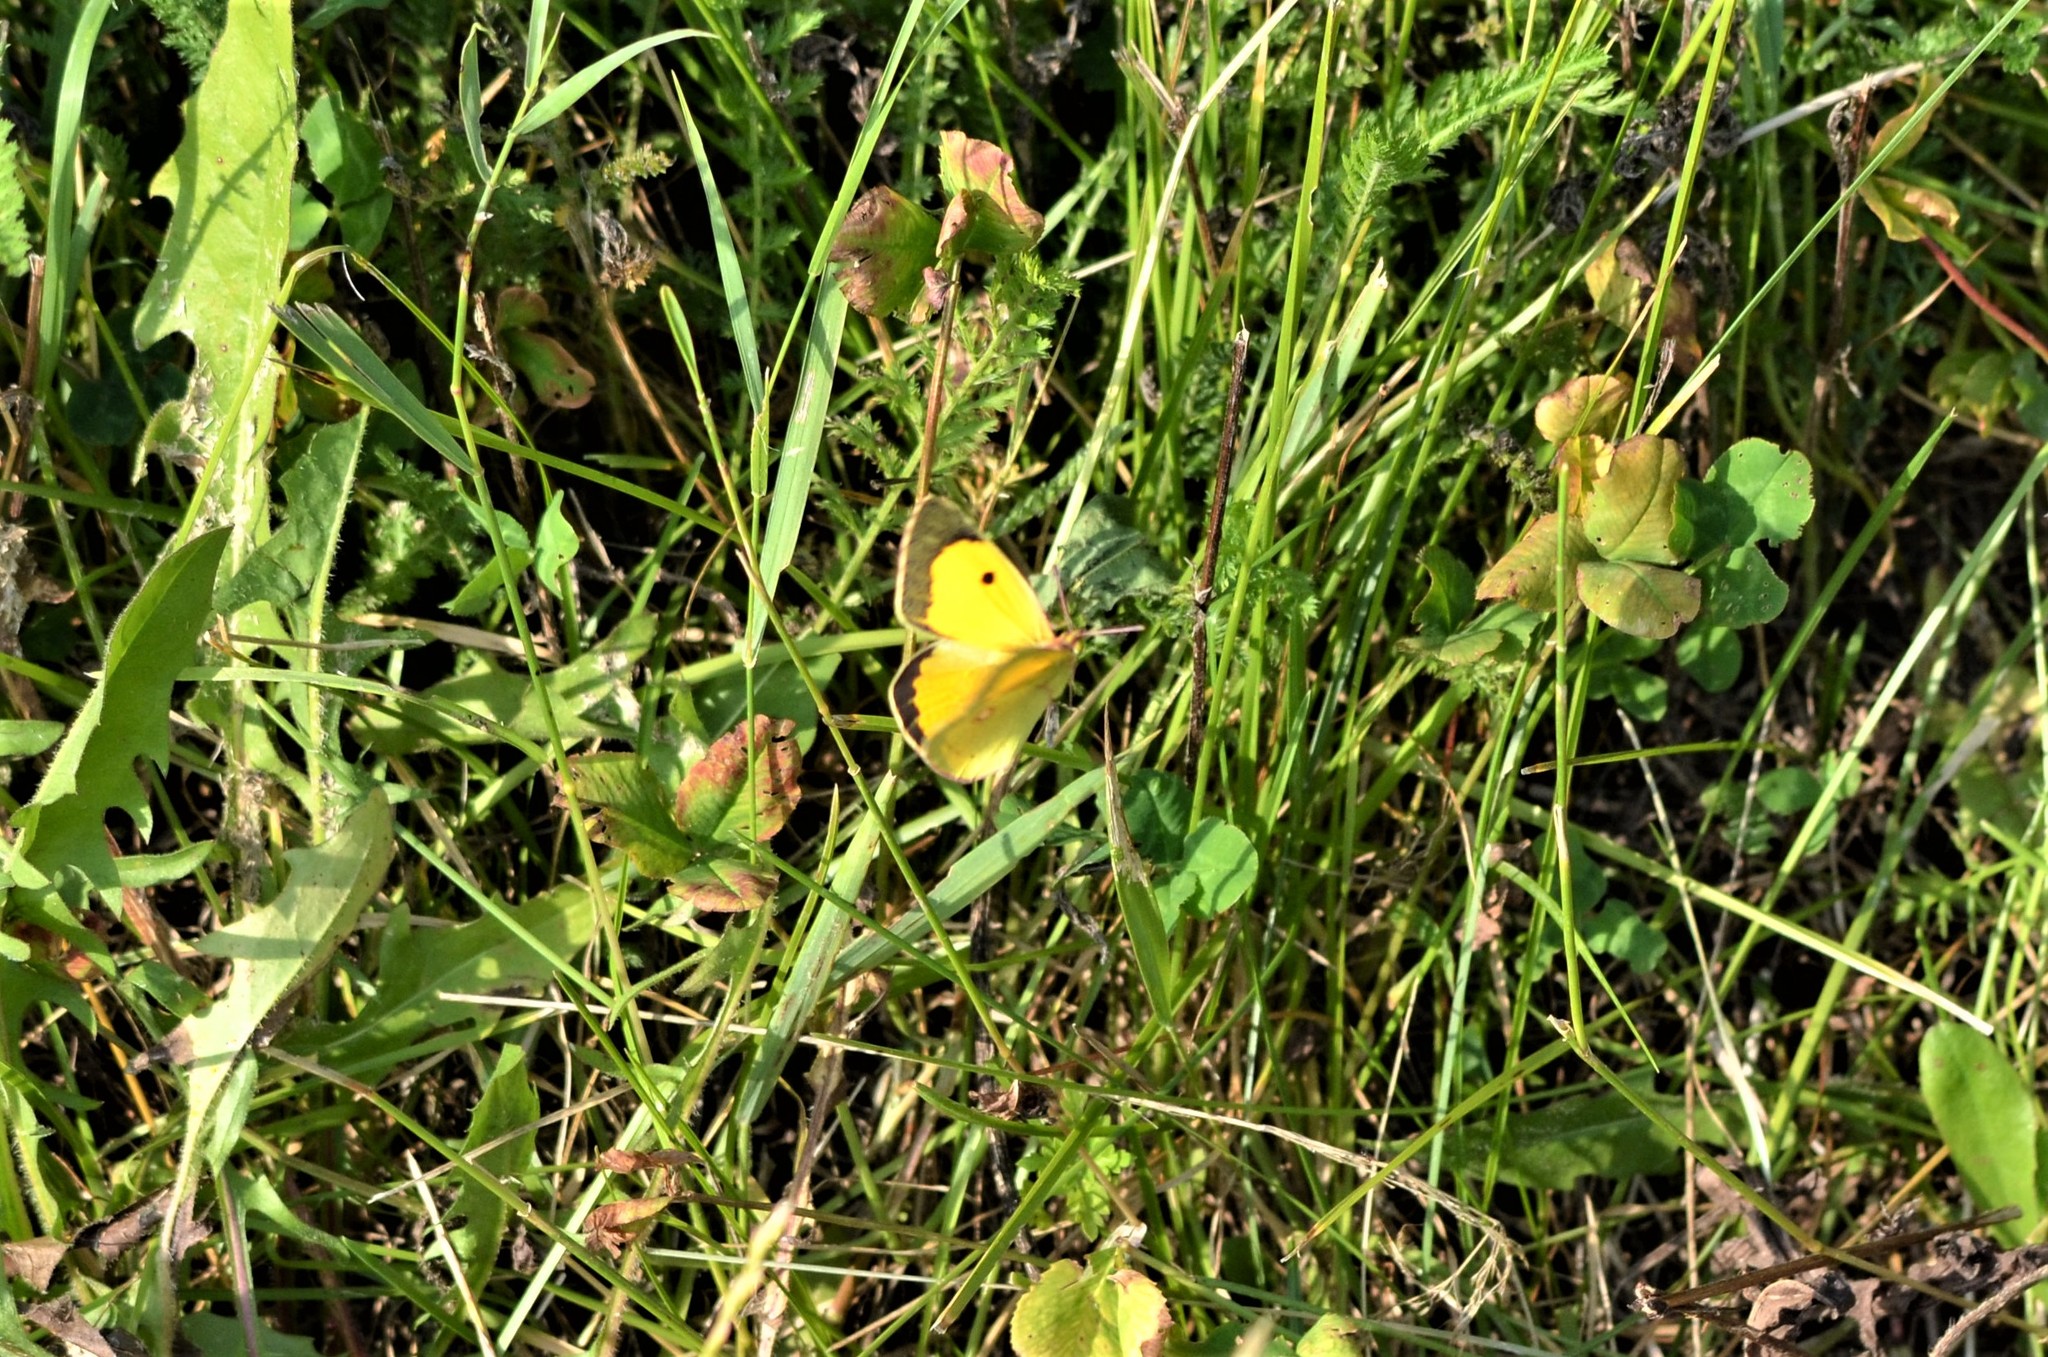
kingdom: Animalia
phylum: Arthropoda
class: Insecta
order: Lepidoptera
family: Pieridae
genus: Colias
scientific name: Colias croceus
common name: Clouded yellow
